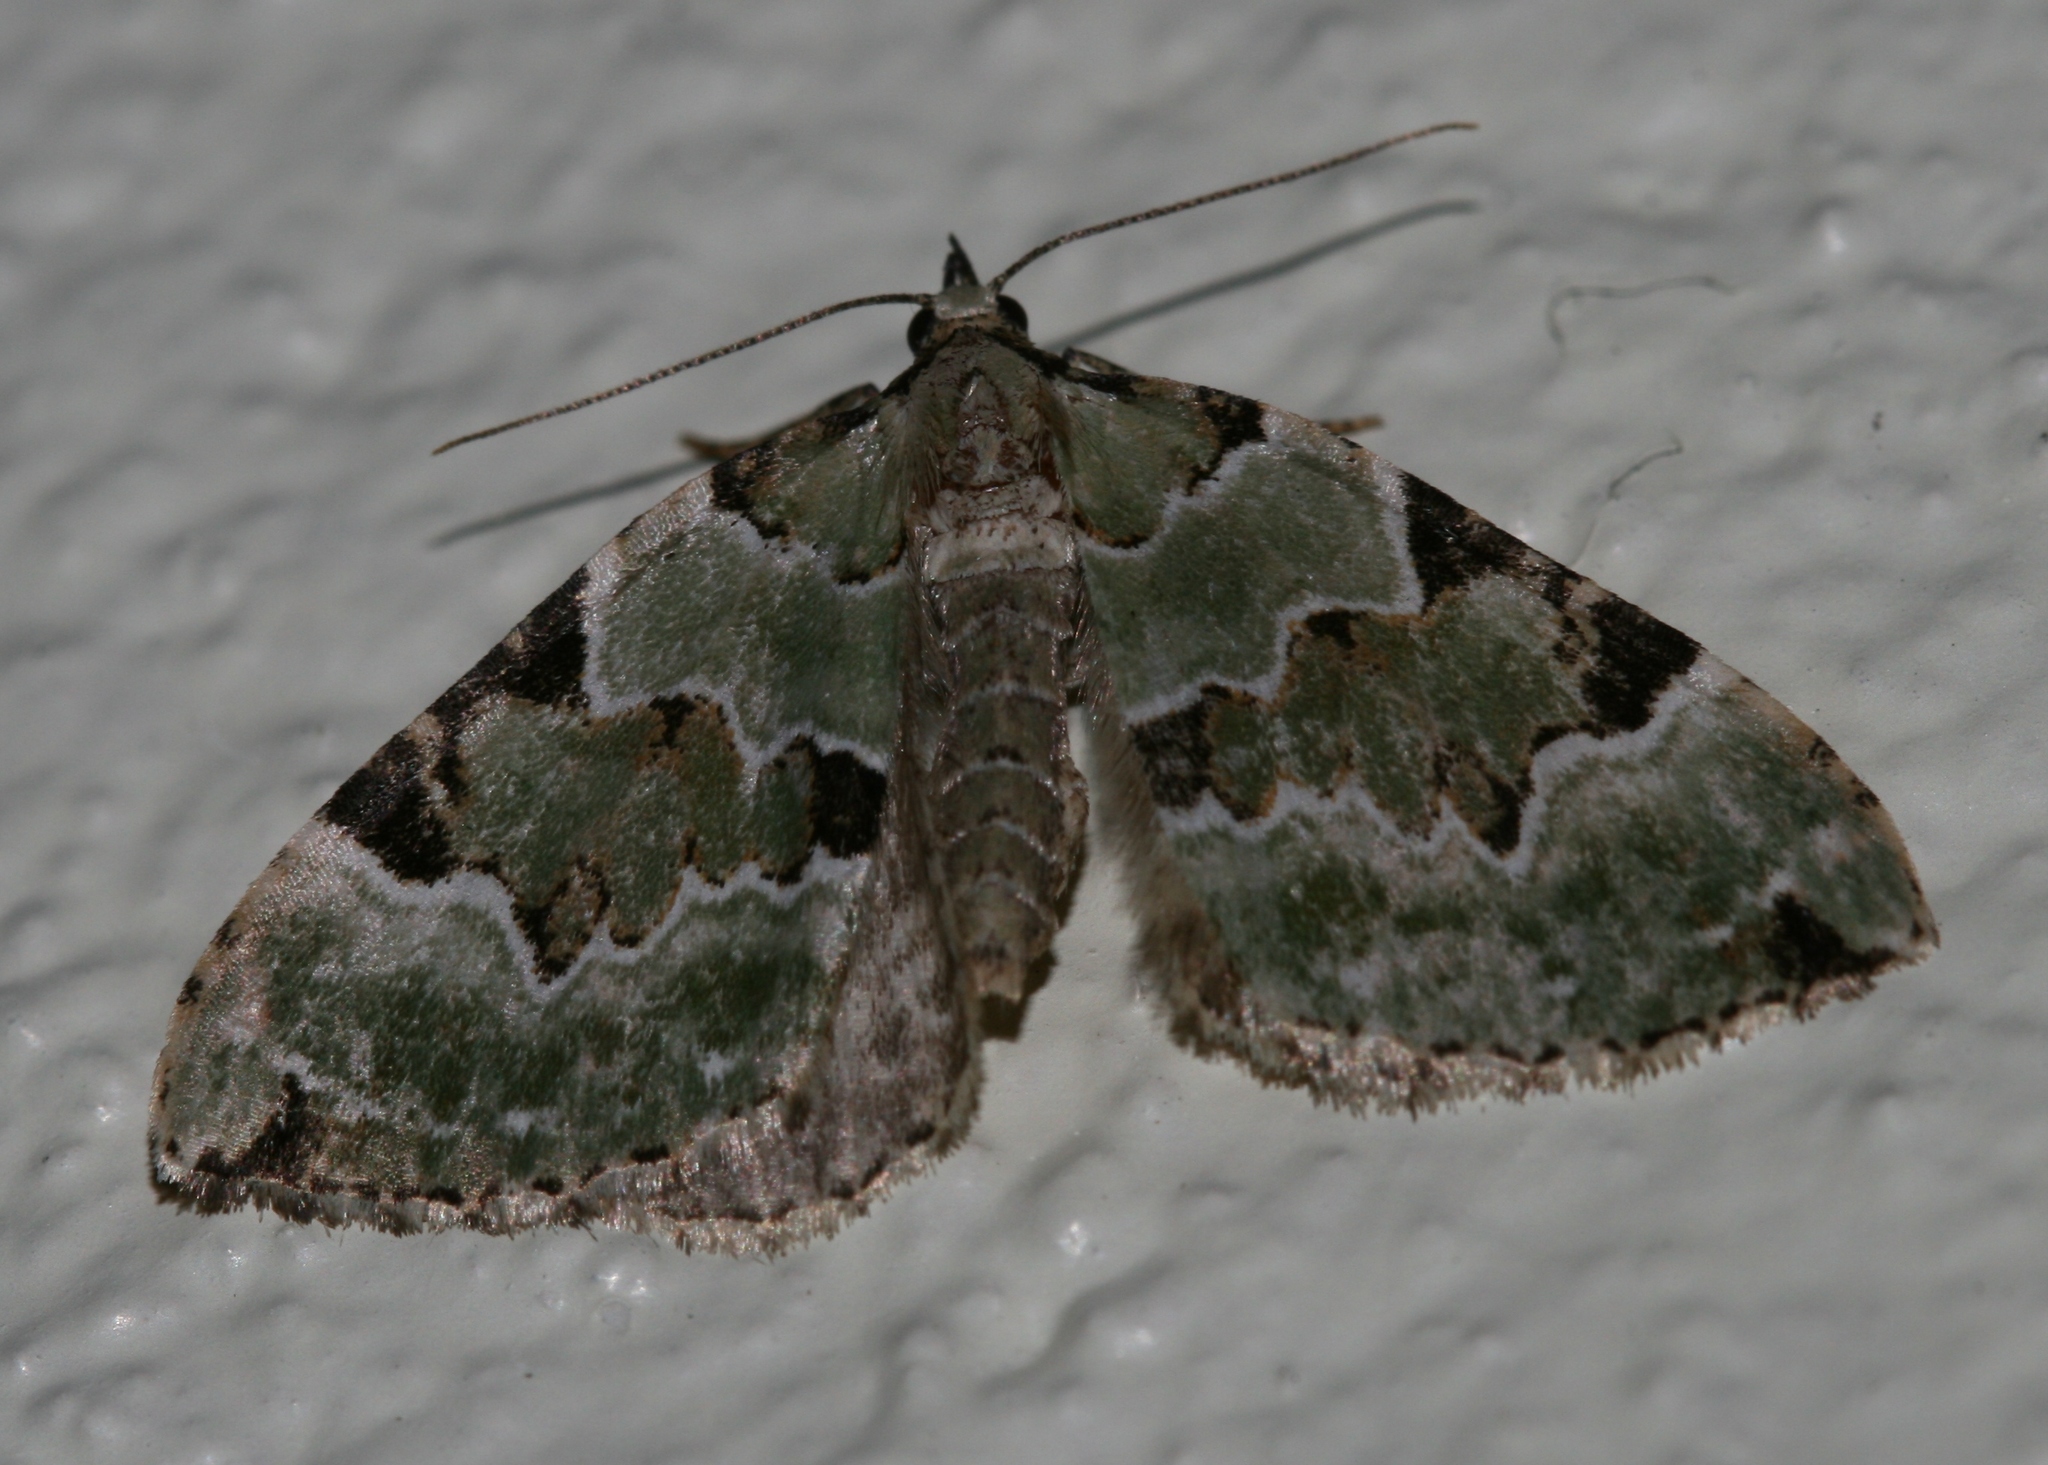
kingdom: Animalia
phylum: Arthropoda
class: Insecta
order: Lepidoptera
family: Geometridae
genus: Colostygia
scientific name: Colostygia pectinataria
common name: Green carpet
